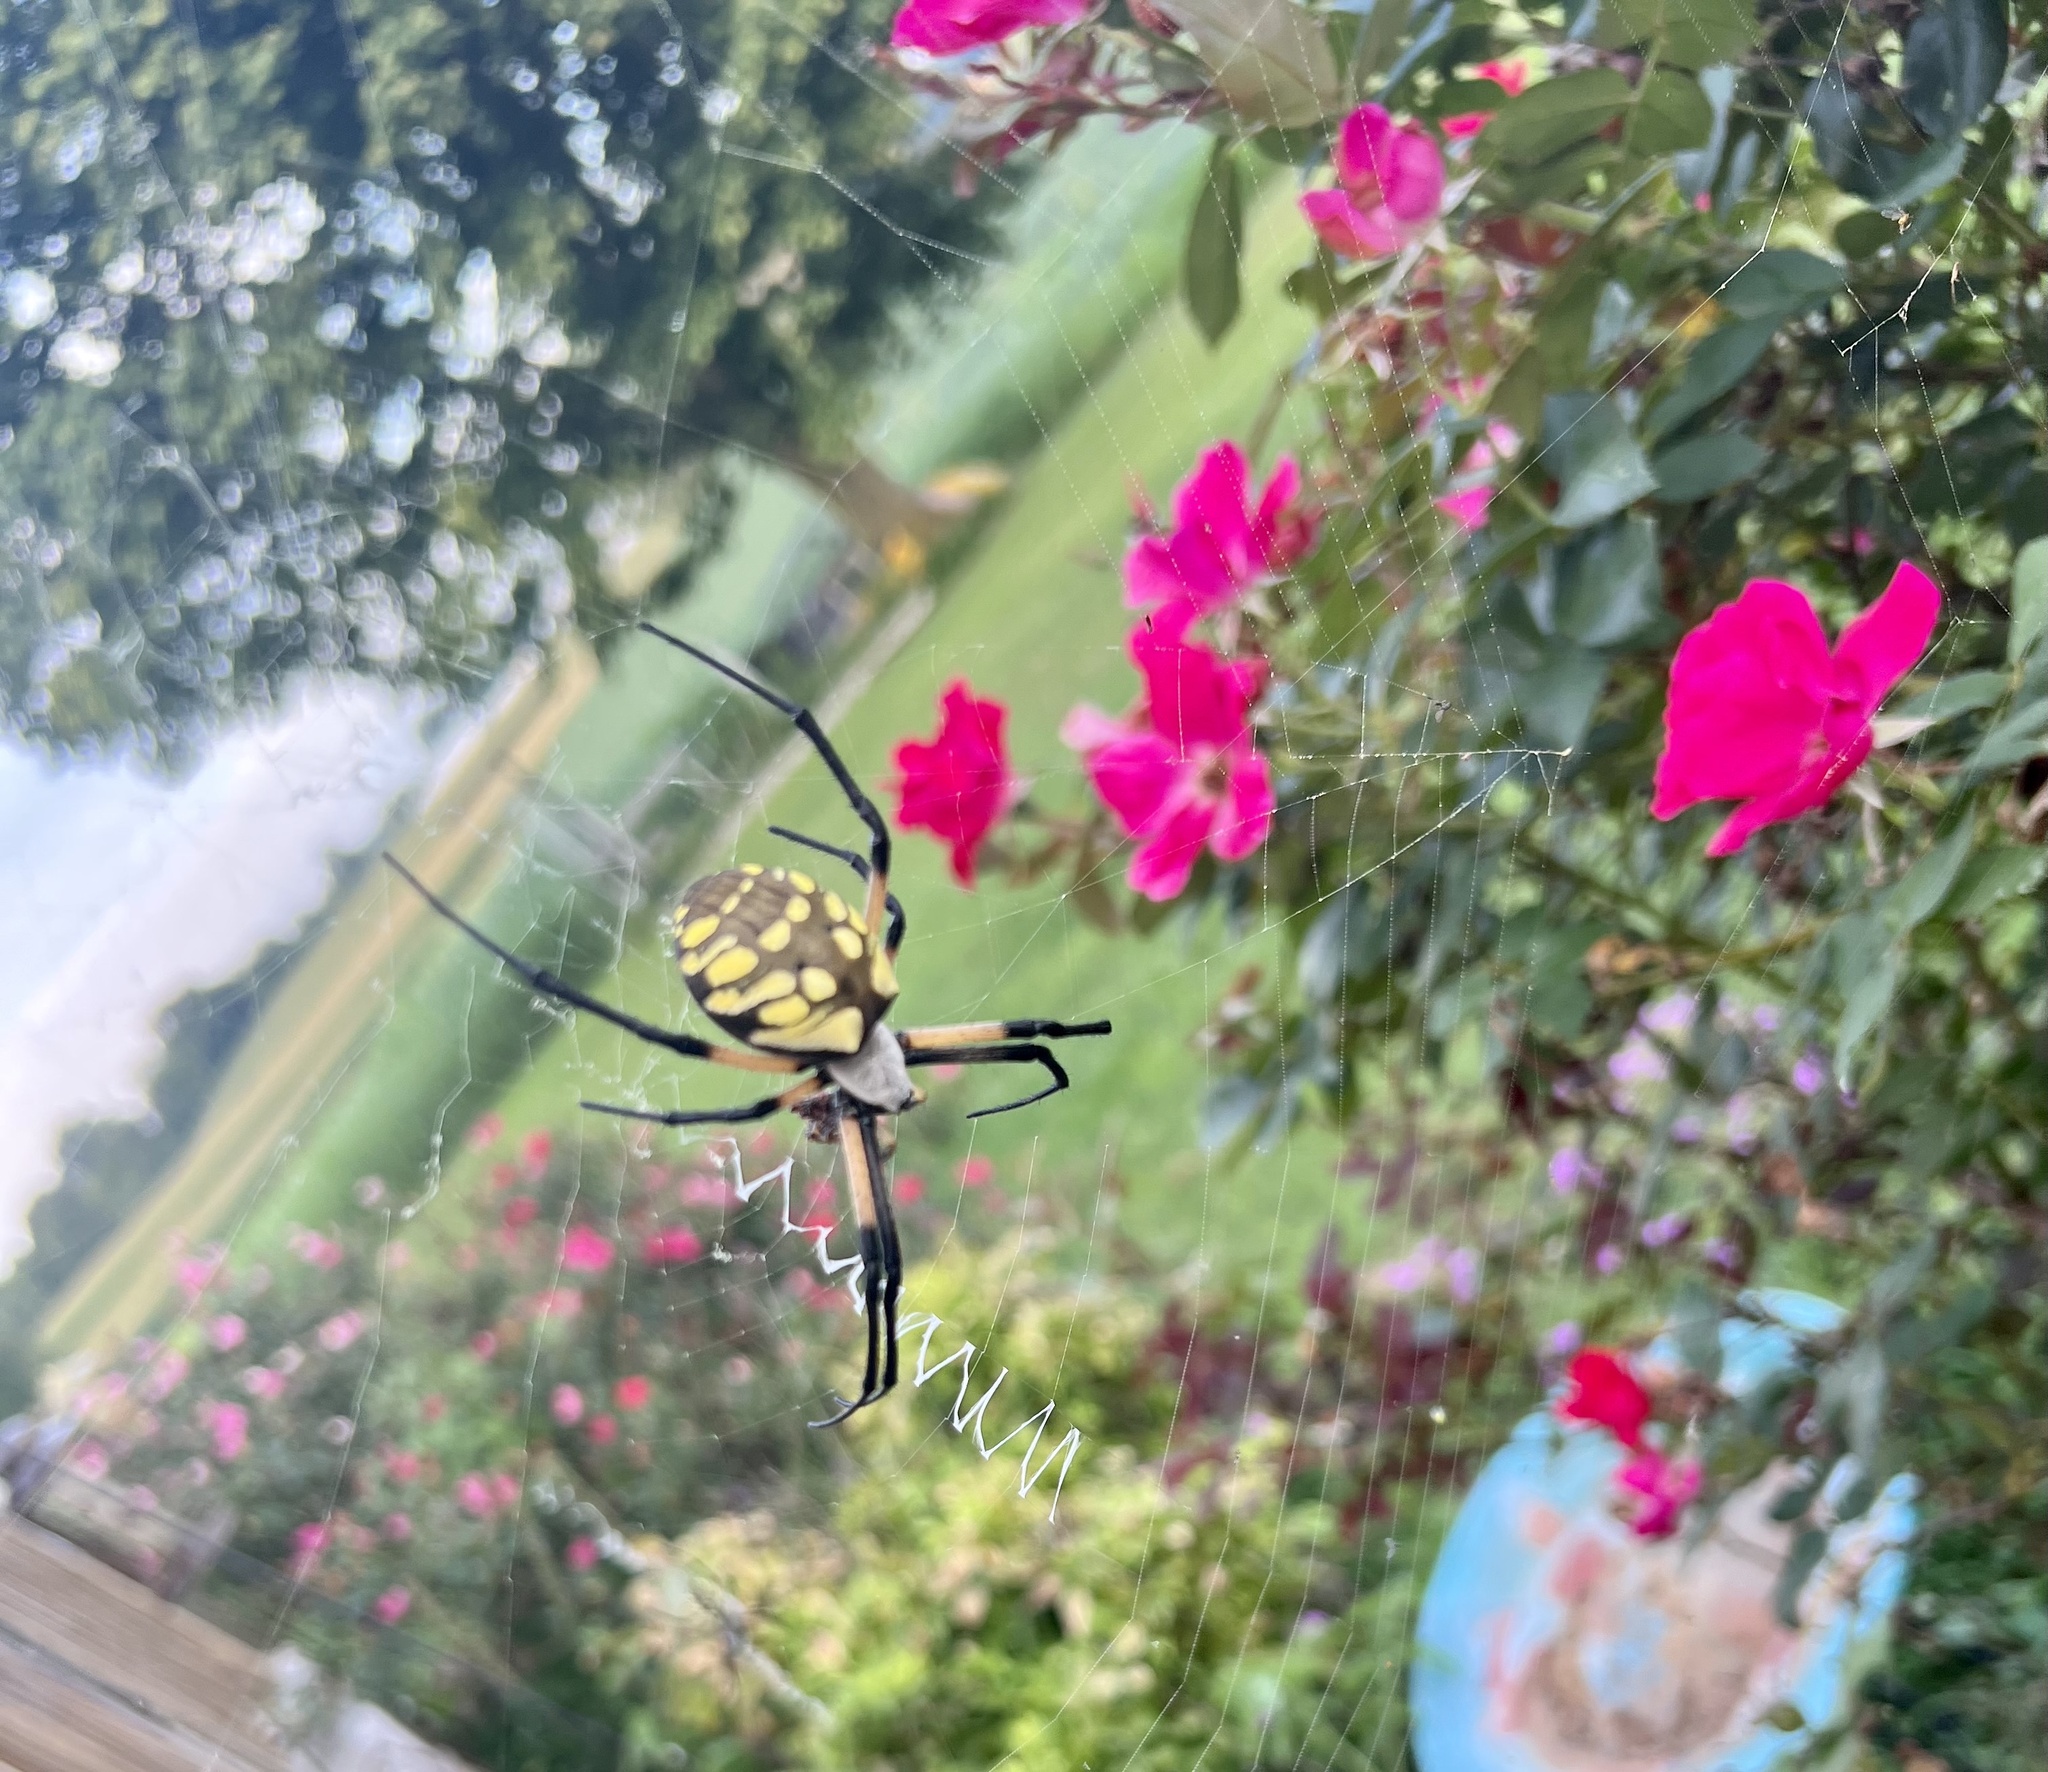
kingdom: Animalia
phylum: Arthropoda
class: Arachnida
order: Araneae
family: Araneidae
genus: Argiope
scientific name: Argiope aurantia
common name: Orb weavers
